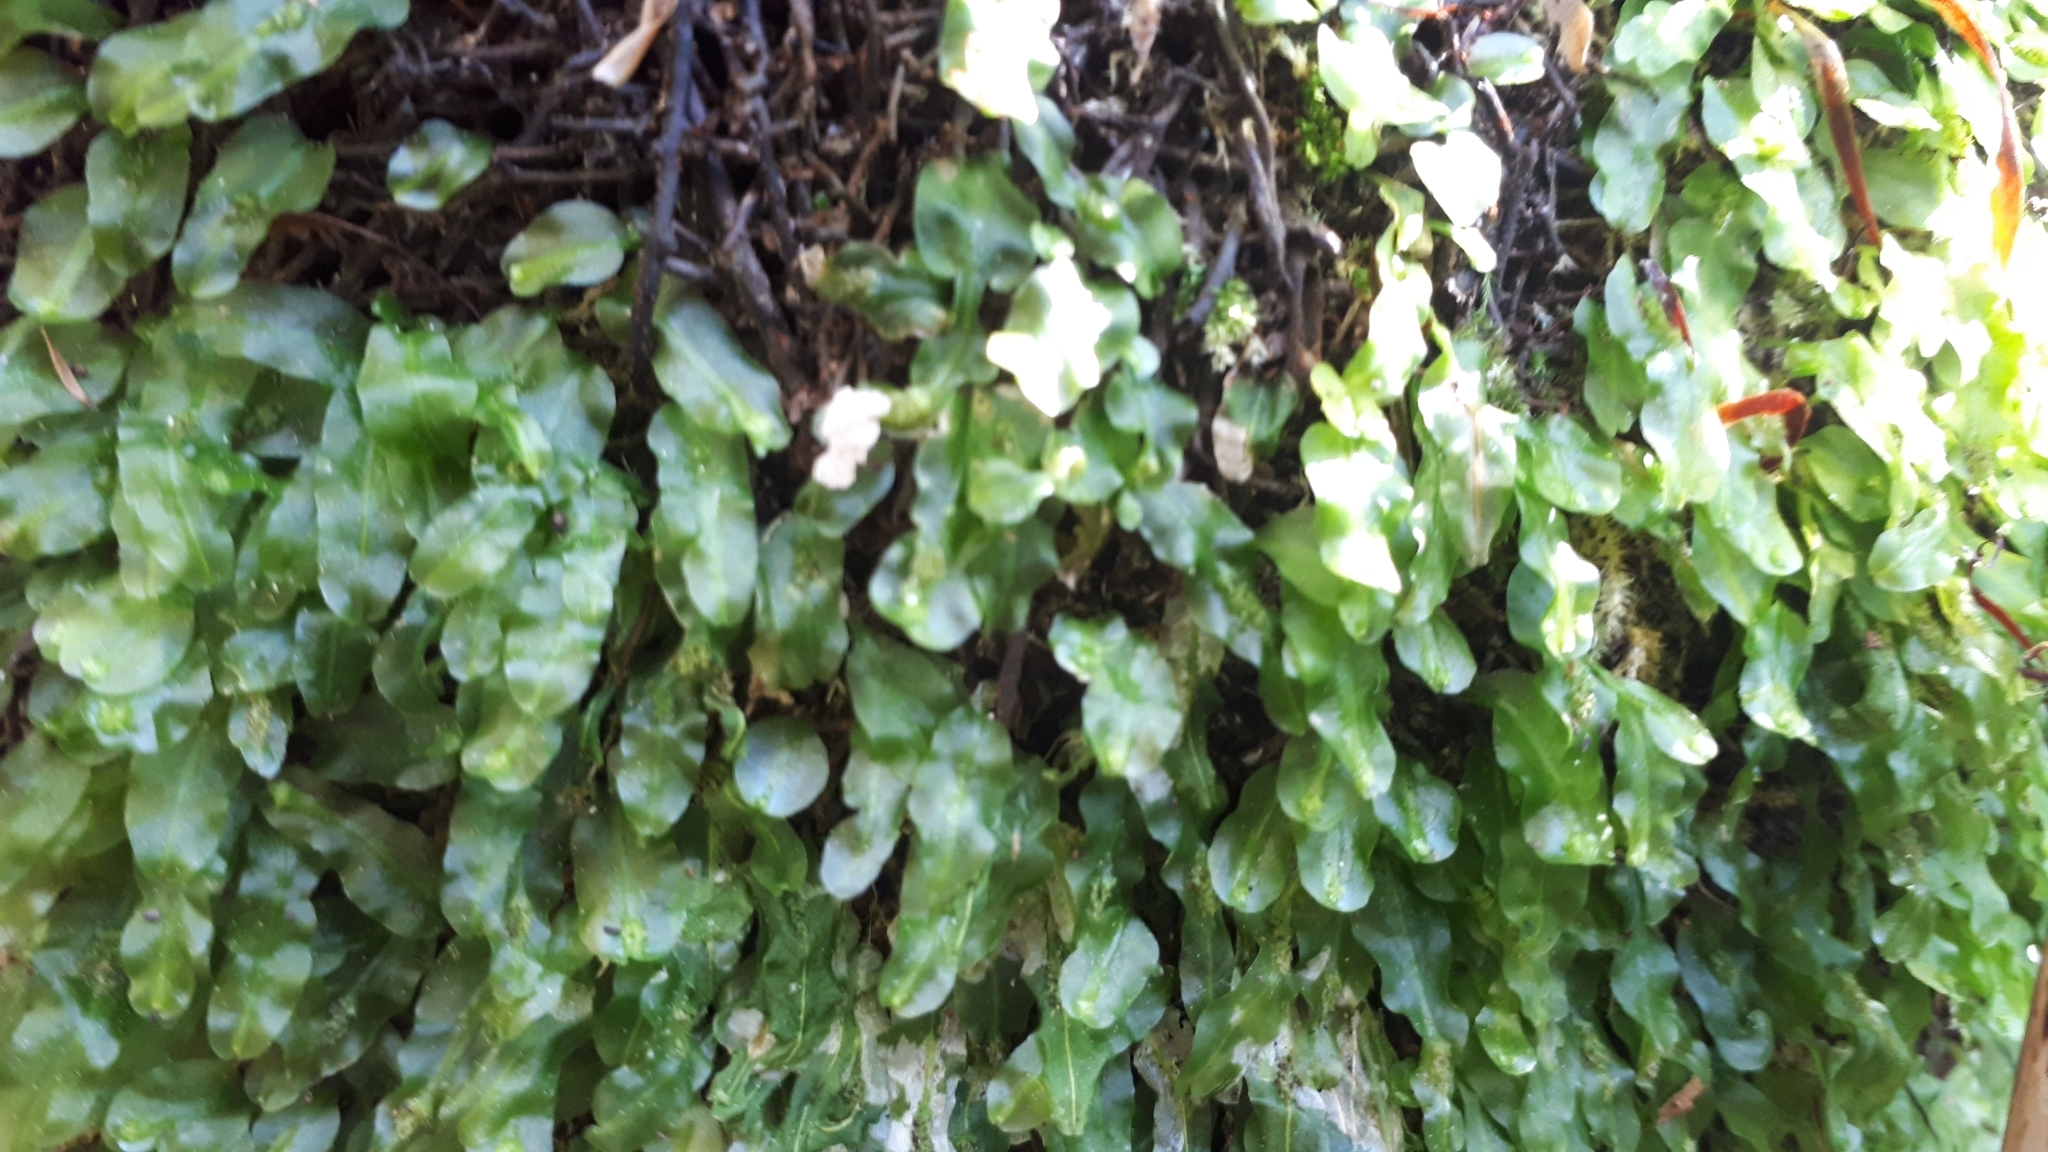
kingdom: Plantae
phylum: Marchantiophyta
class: Jungermanniopsida
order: Pallaviciniales
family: Pallaviciniaceae
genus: Symphyogyna
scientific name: Symphyogyna subsimplex
